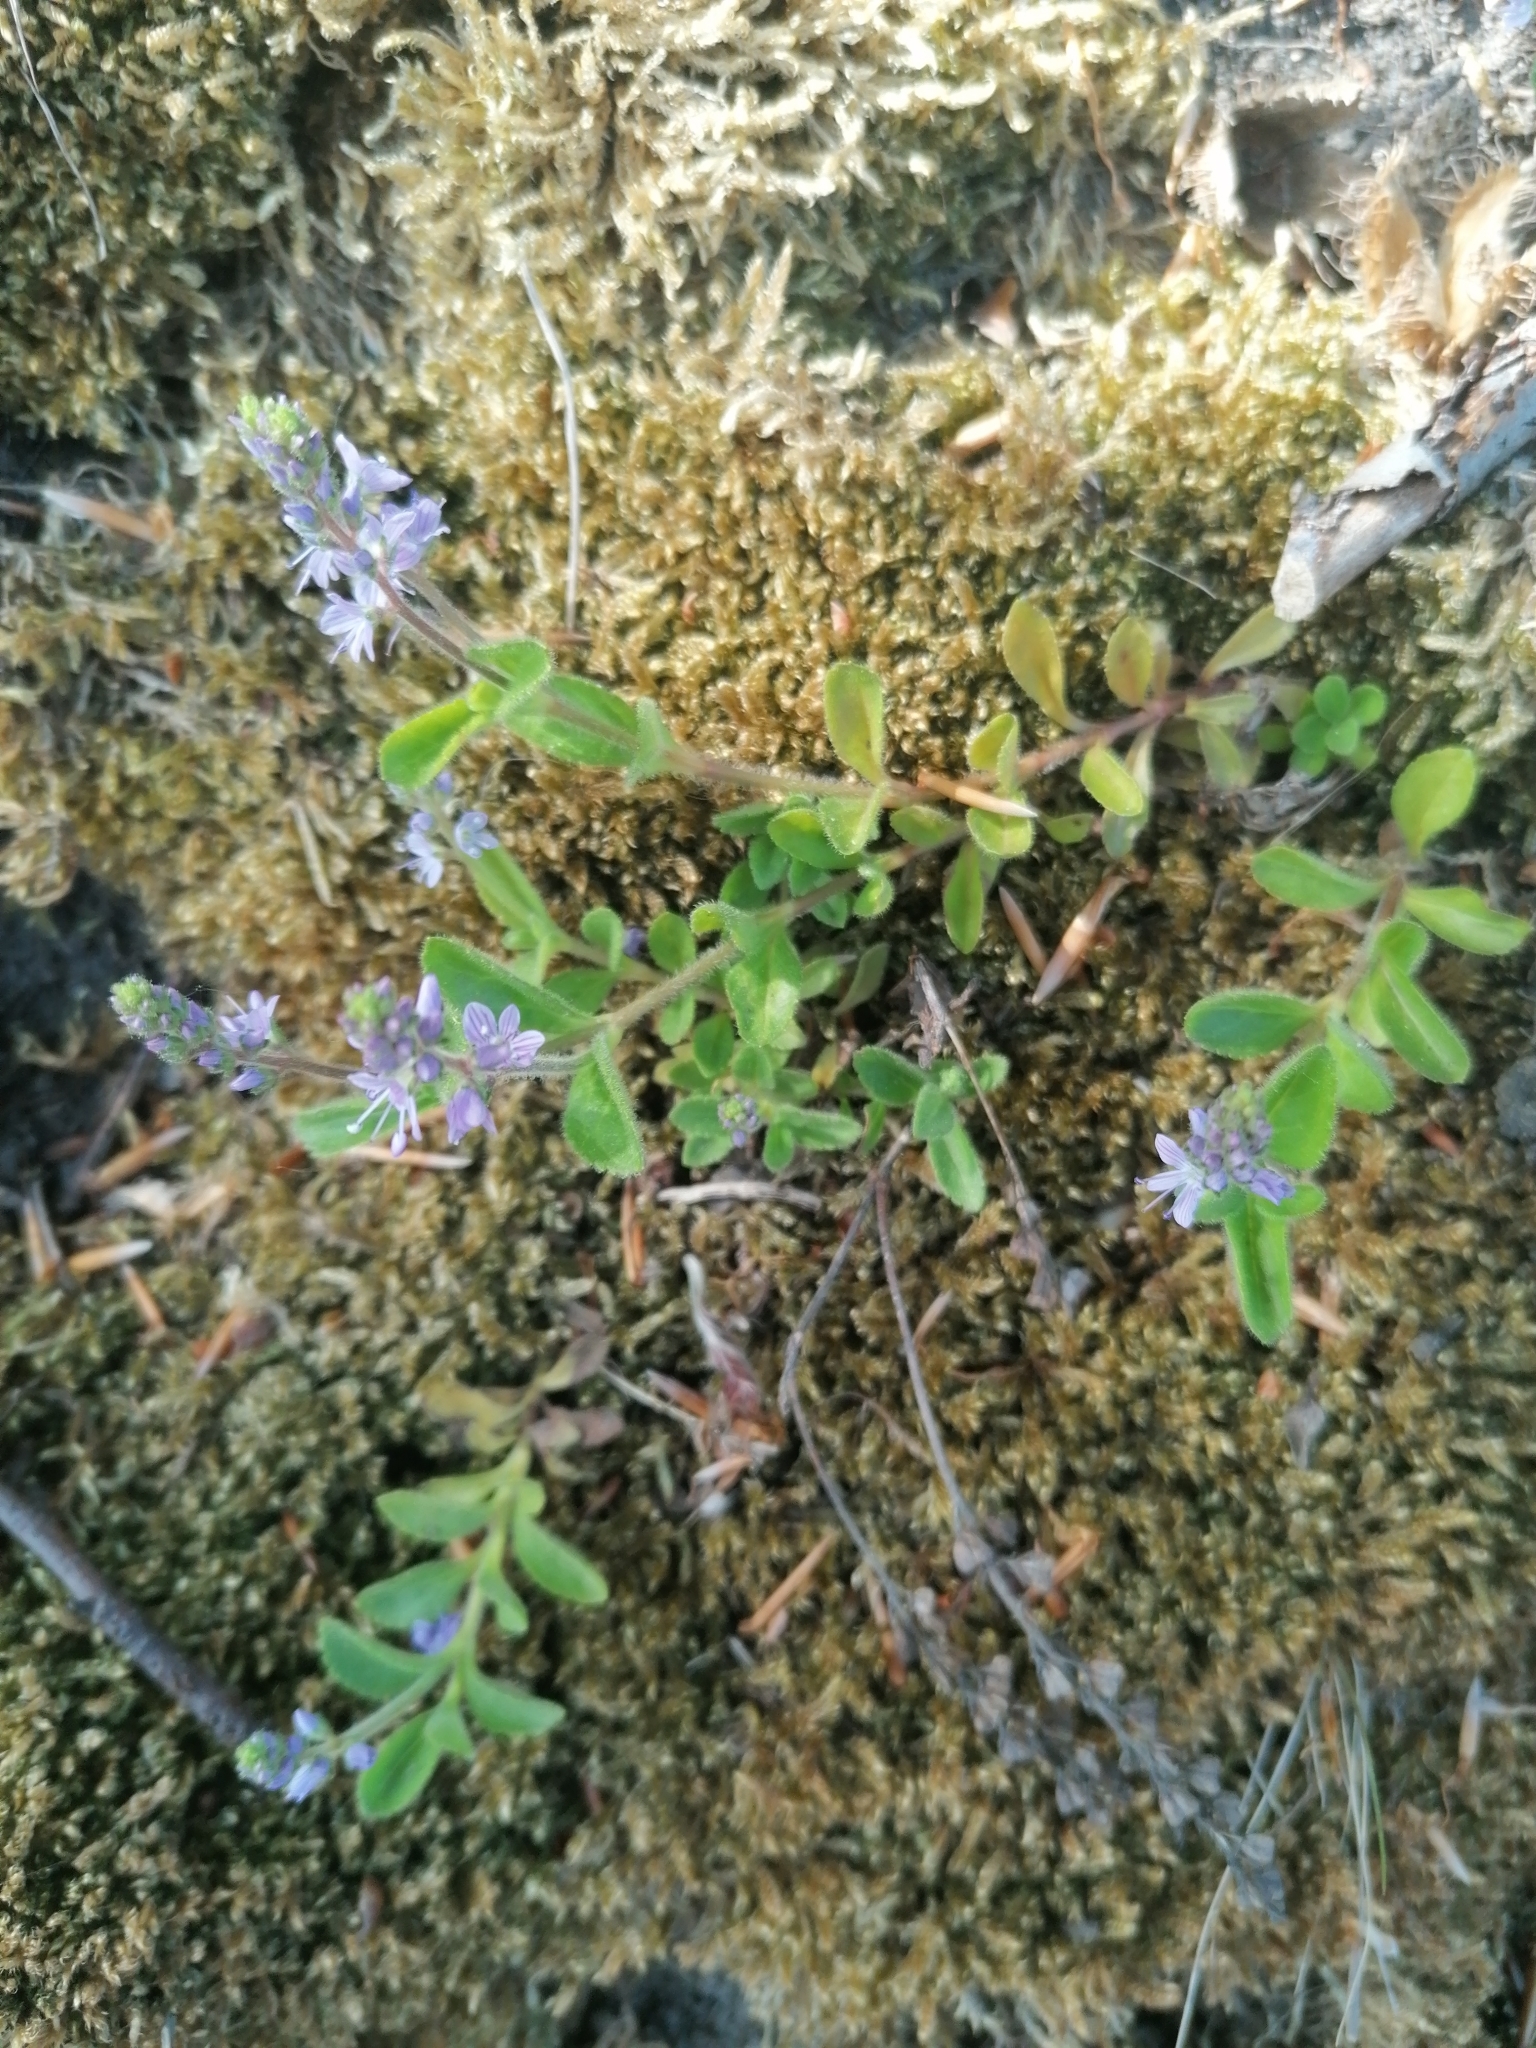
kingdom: Plantae
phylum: Tracheophyta
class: Magnoliopsida
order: Lamiales
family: Plantaginaceae
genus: Veronica
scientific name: Veronica officinalis
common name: Common speedwell
